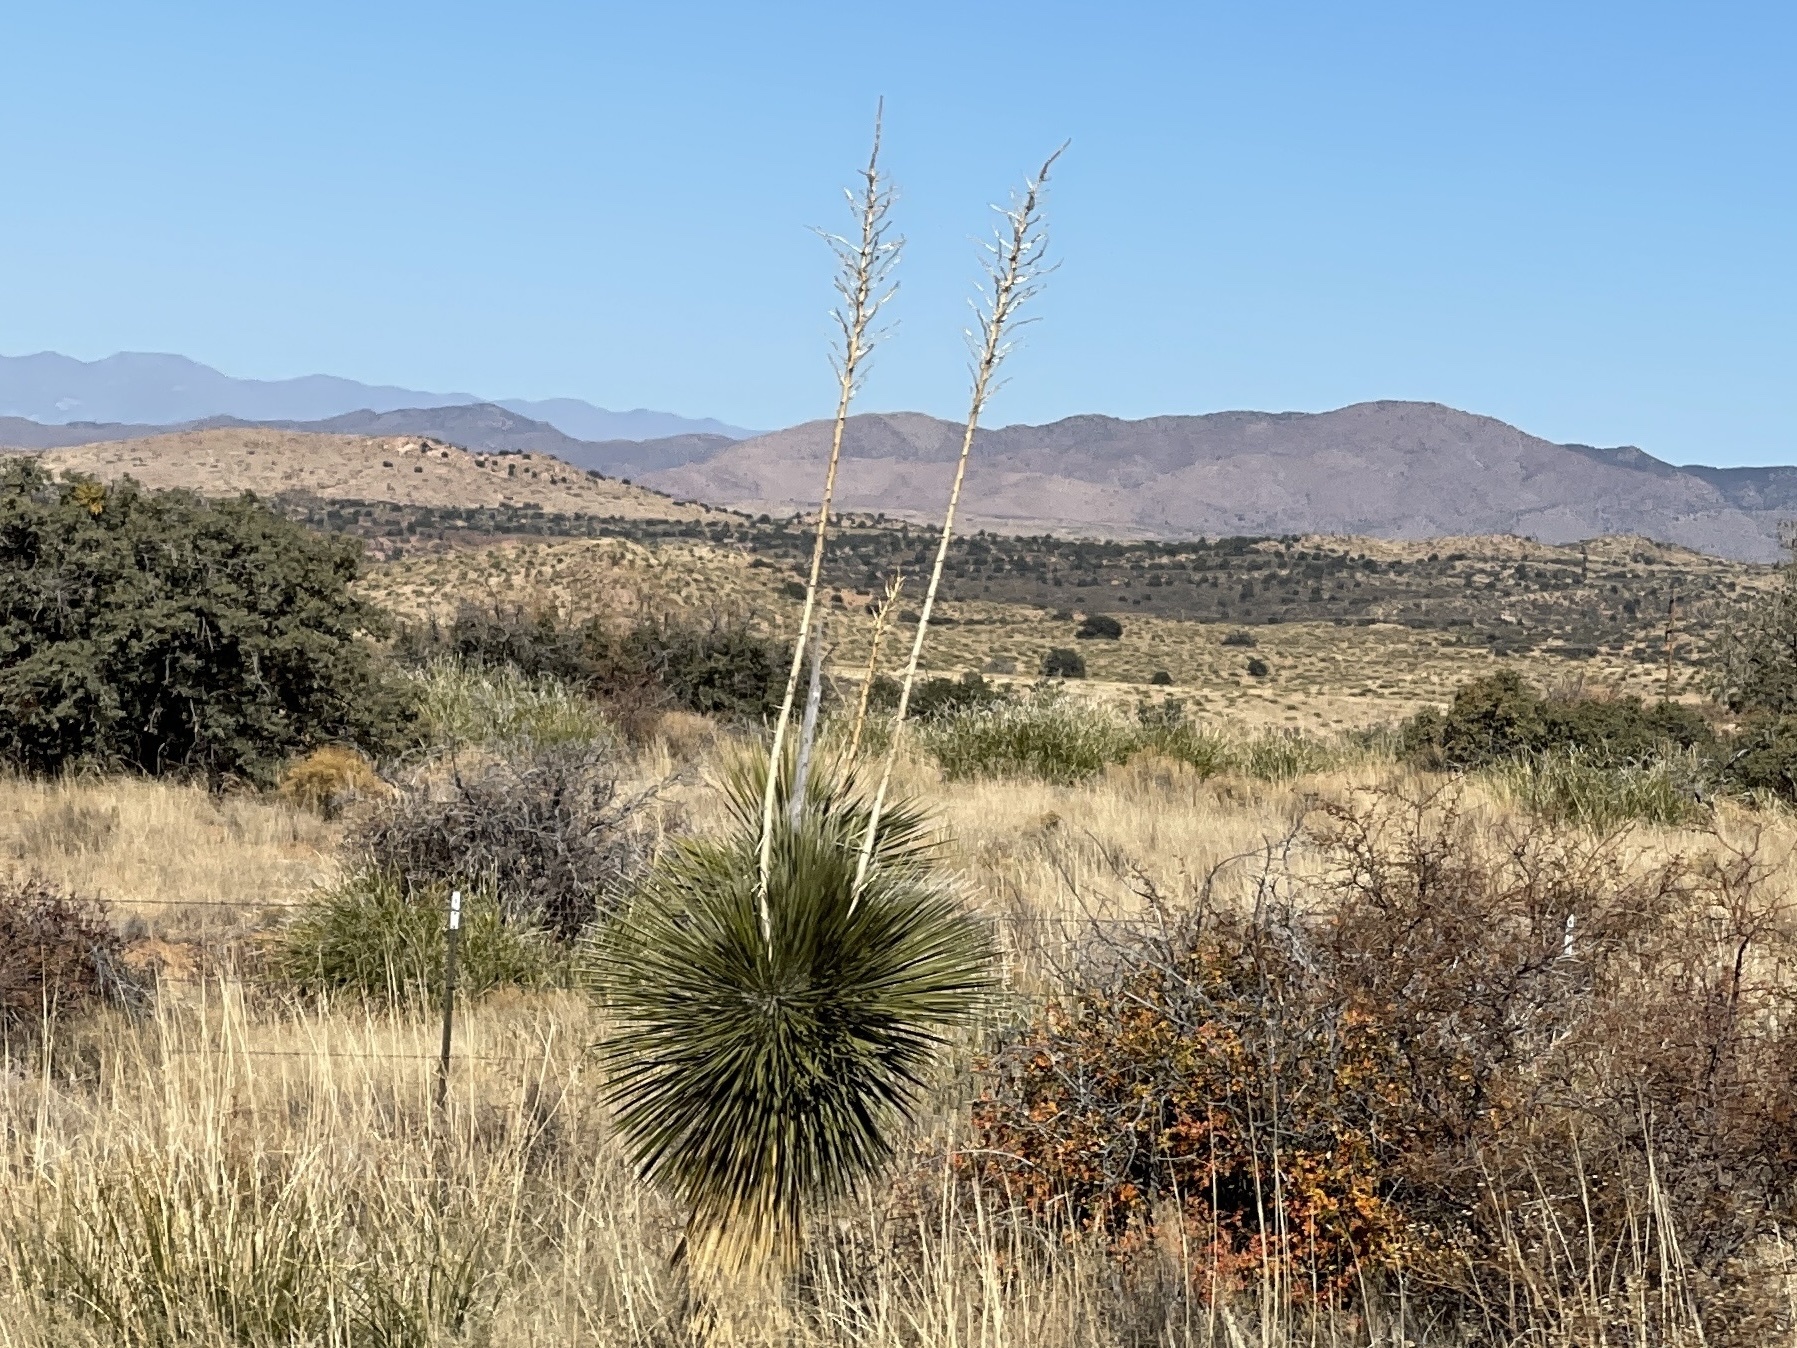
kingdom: Plantae
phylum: Tracheophyta
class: Liliopsida
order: Asparagales
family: Asparagaceae
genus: Yucca
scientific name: Yucca elata
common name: Palmella
